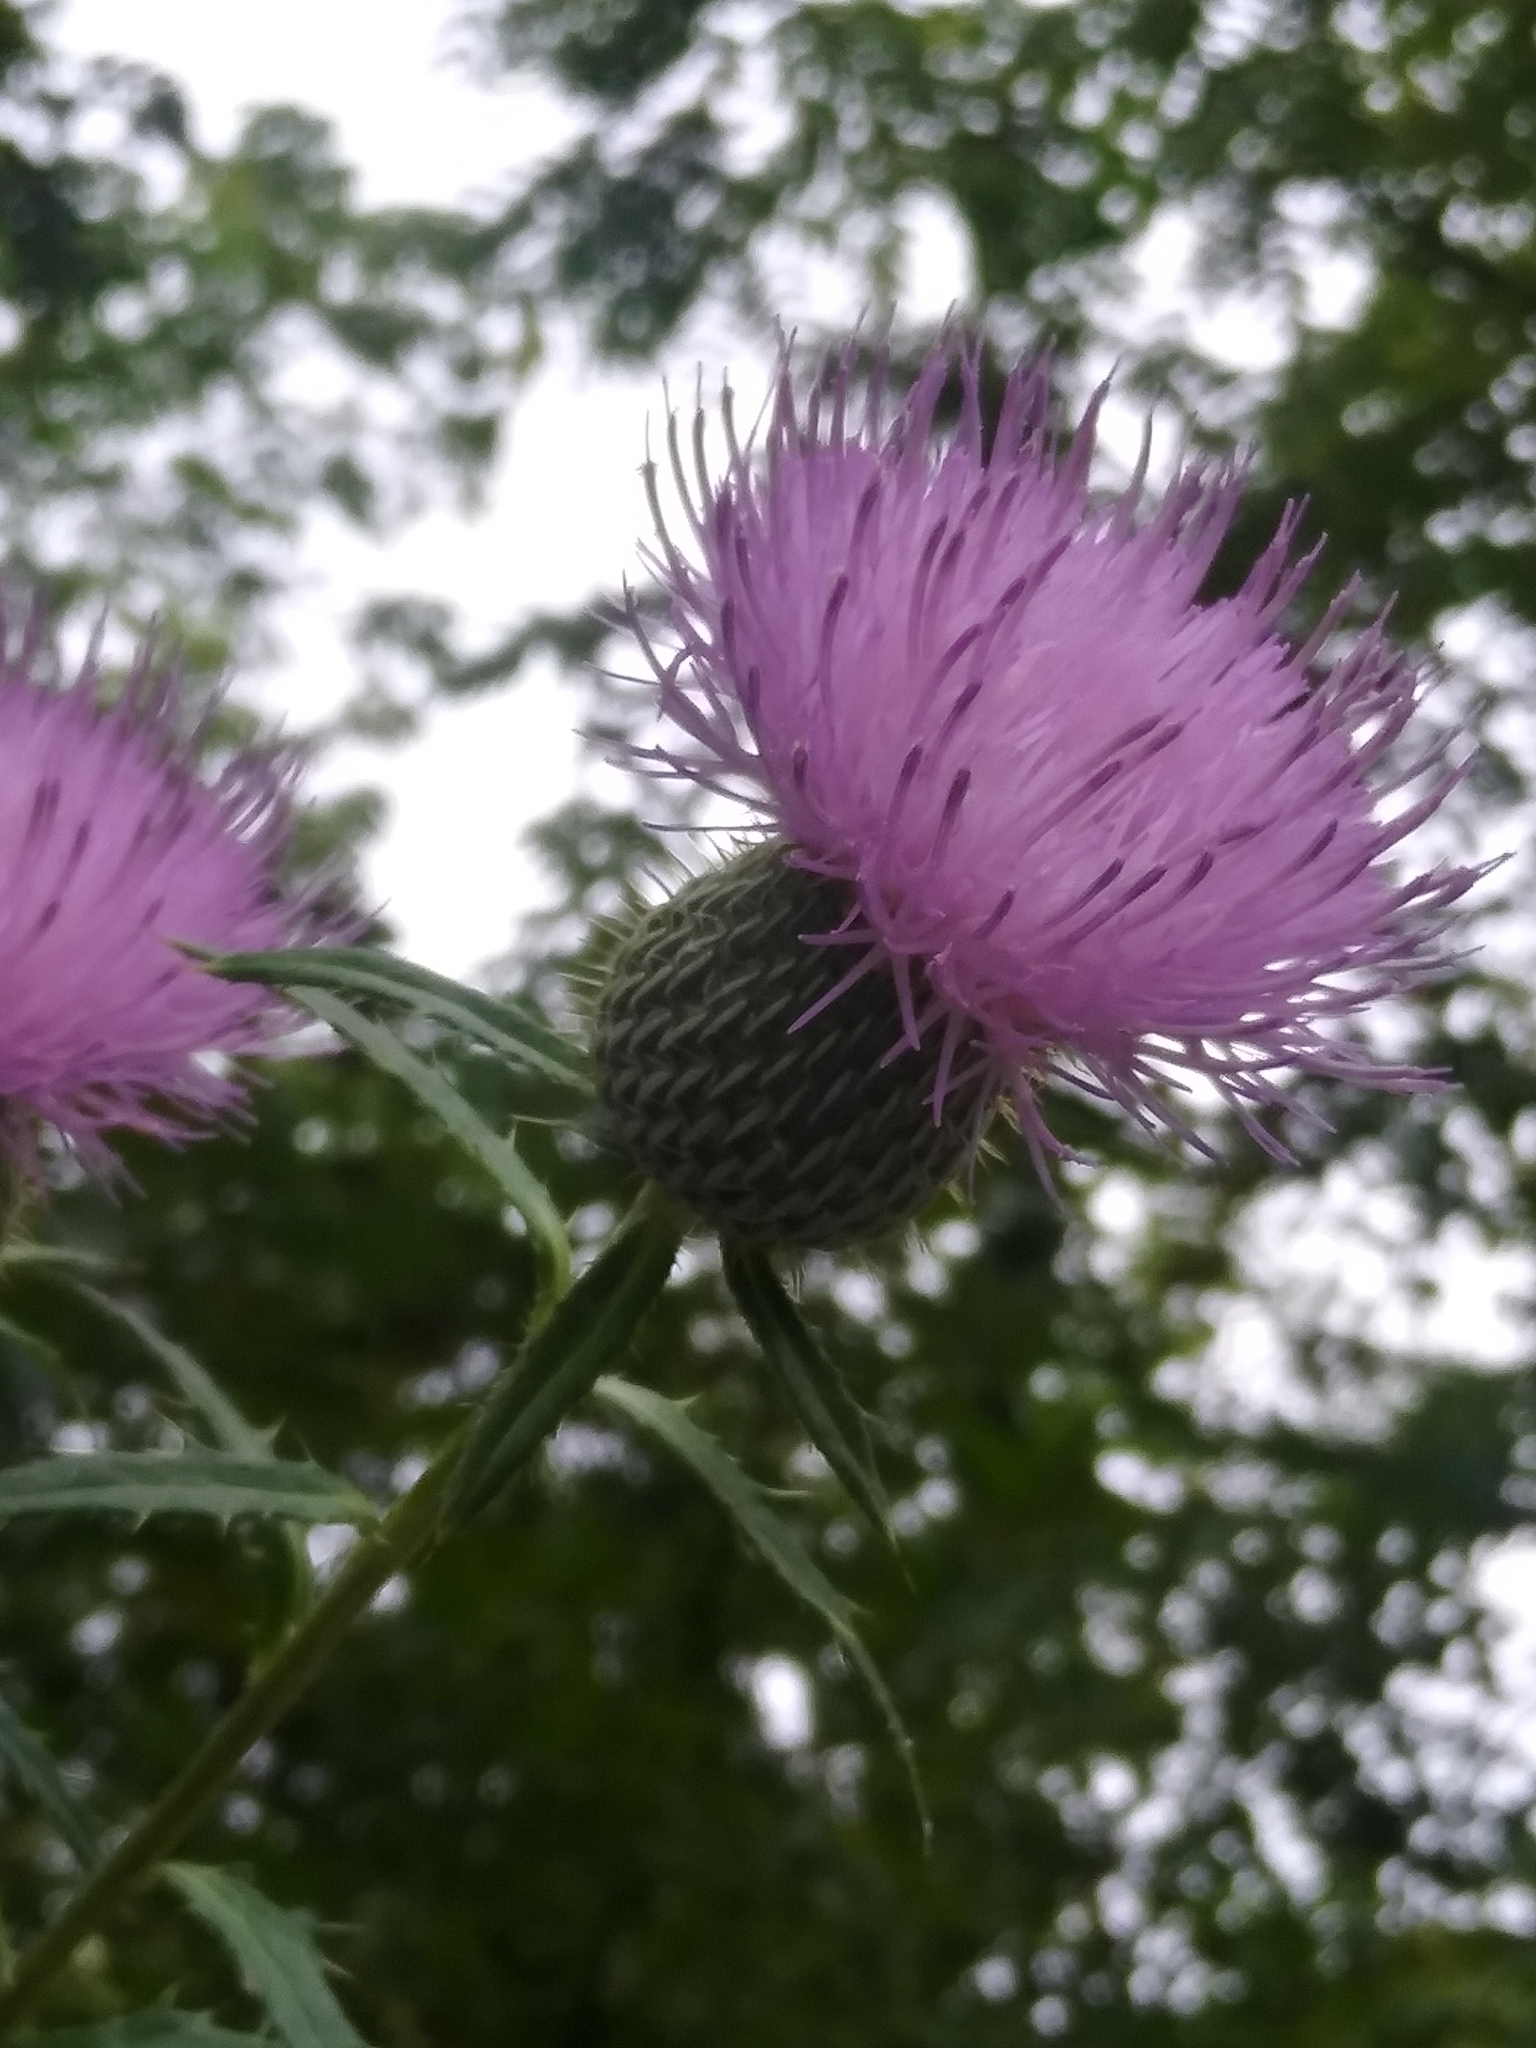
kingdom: Plantae
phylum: Tracheophyta
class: Magnoliopsida
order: Asterales
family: Asteraceae
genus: Cirsium
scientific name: Cirsium altissimum
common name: Roadside thistle
